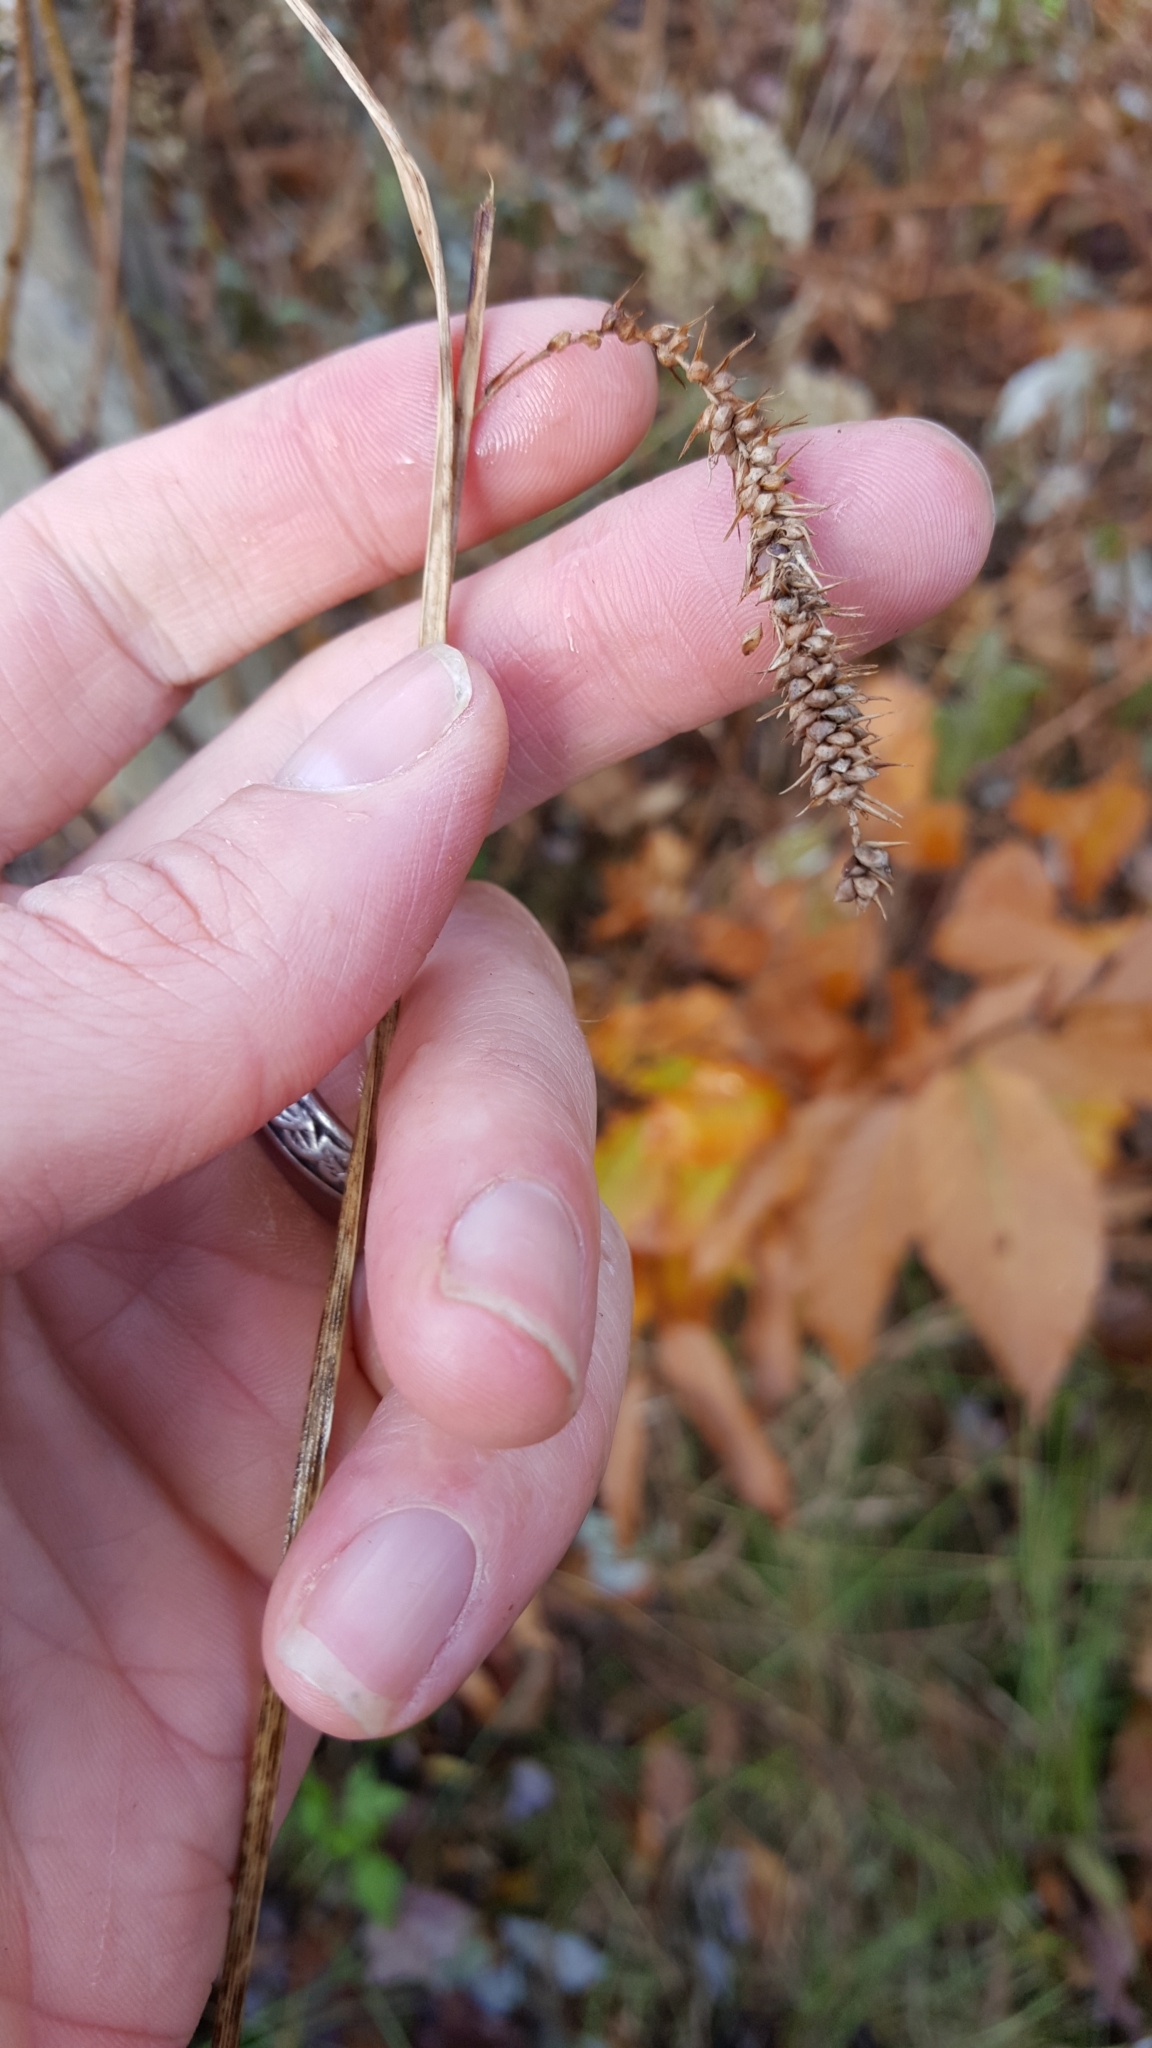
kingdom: Plantae
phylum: Tracheophyta
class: Liliopsida
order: Poales
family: Cyperaceae
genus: Carex
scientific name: Carex gynandra
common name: Nodding sedge
